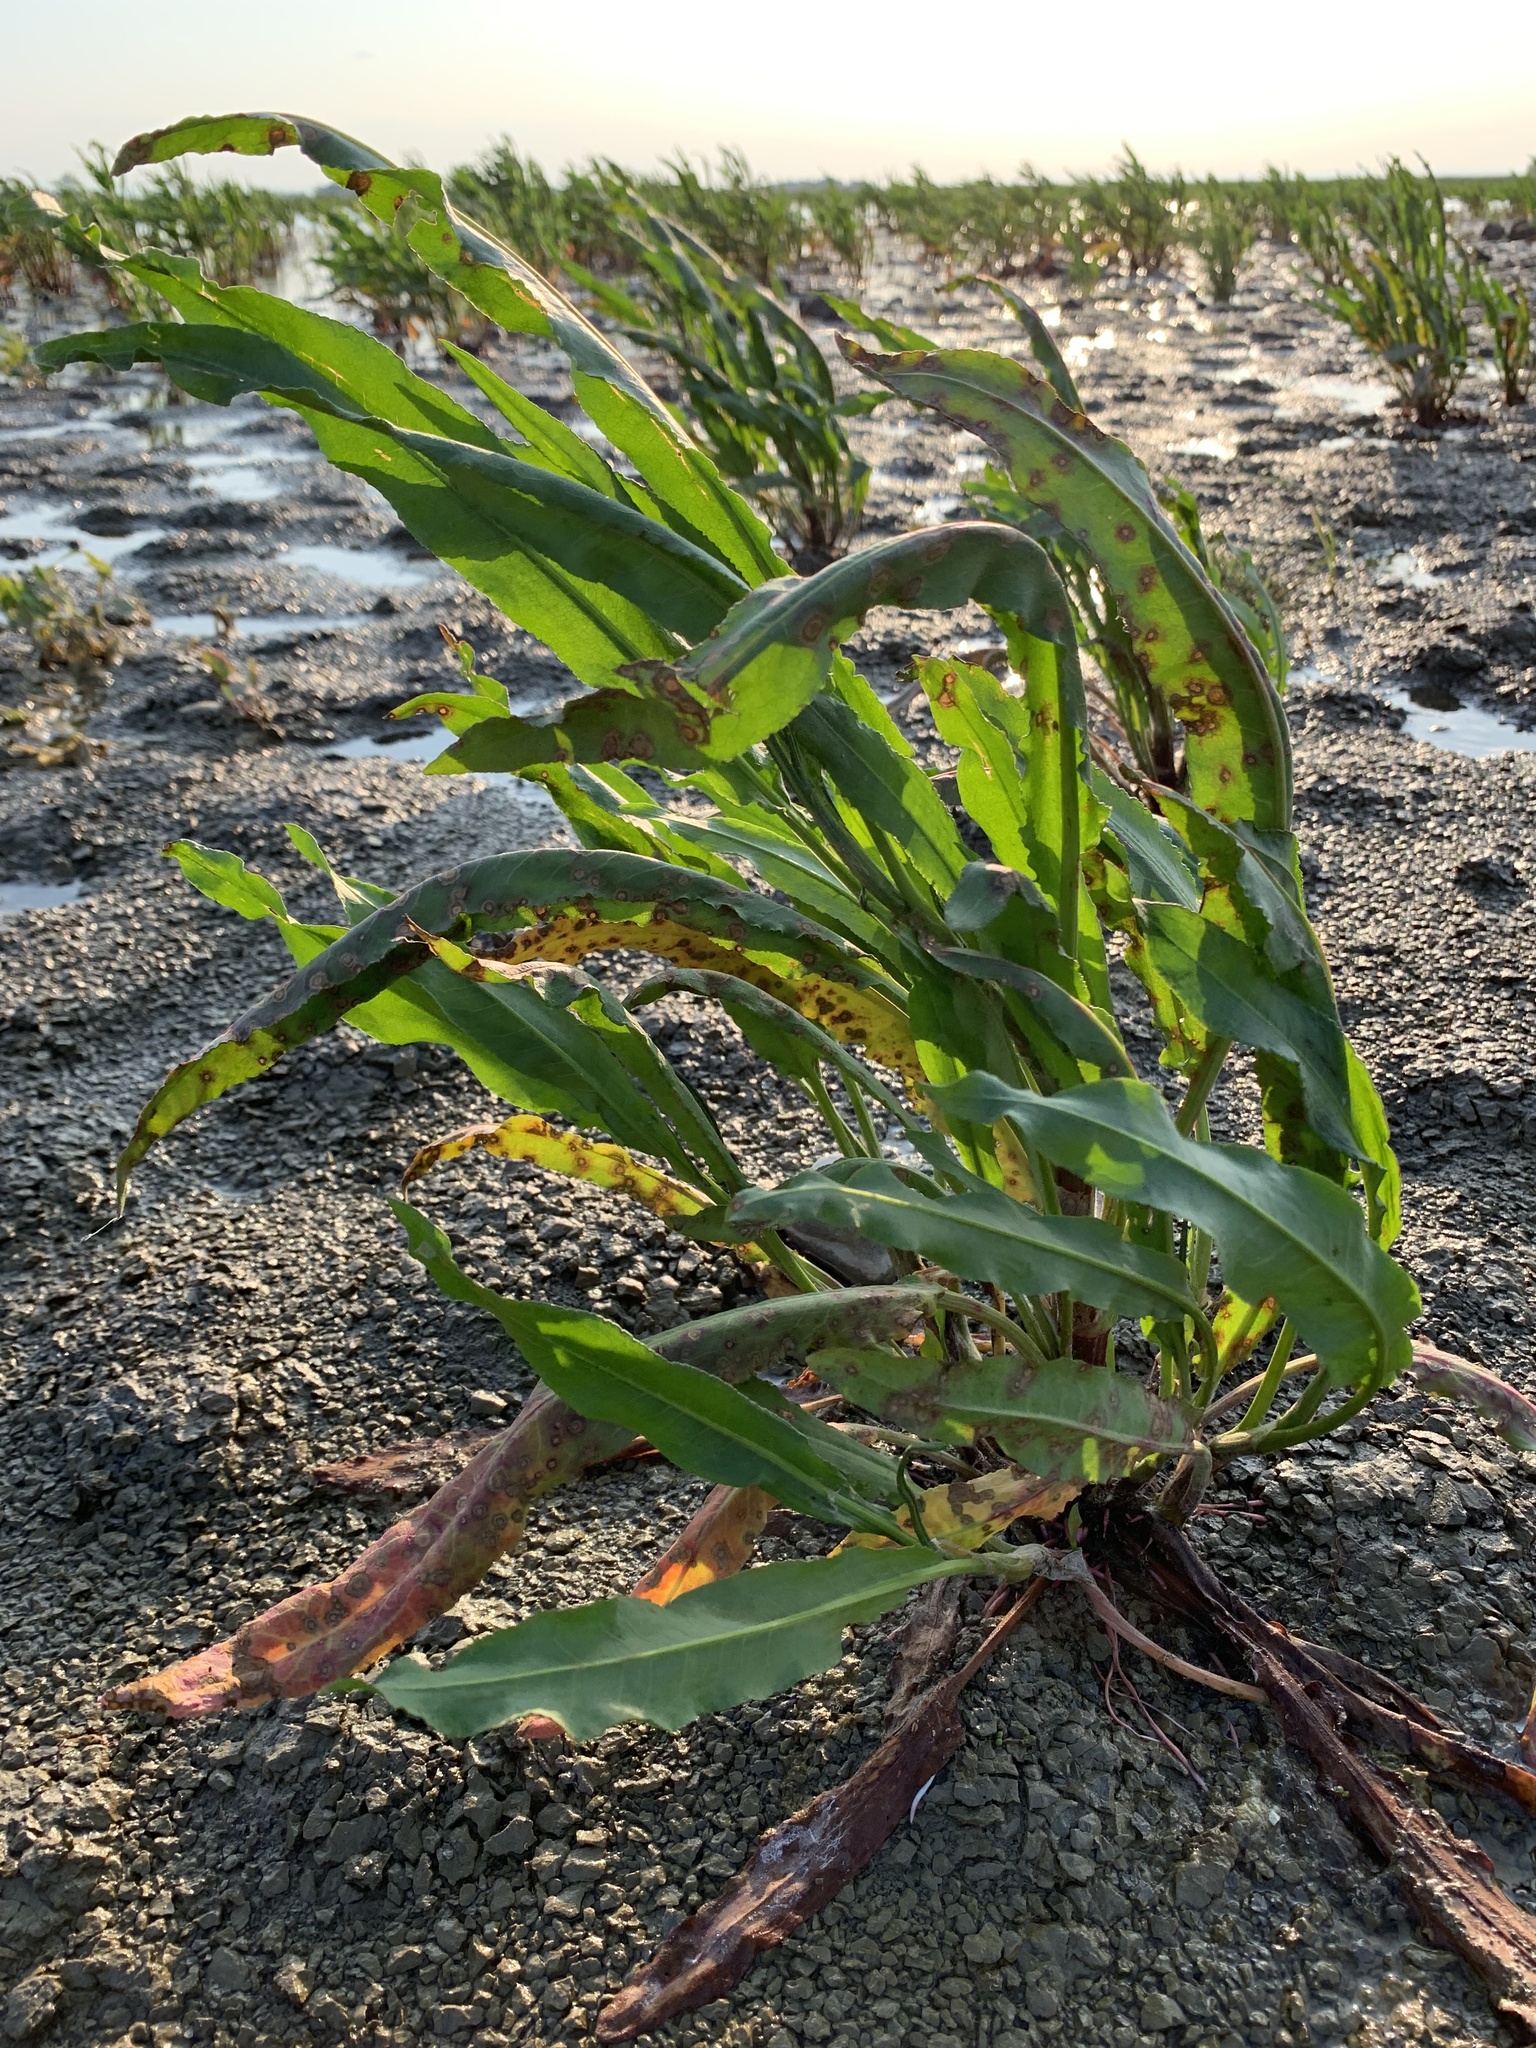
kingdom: Plantae
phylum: Tracheophyta
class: Magnoliopsida
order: Caryophyllales
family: Polygonaceae
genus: Rumex
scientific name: Rumex hydrolapathum
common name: Water dock
